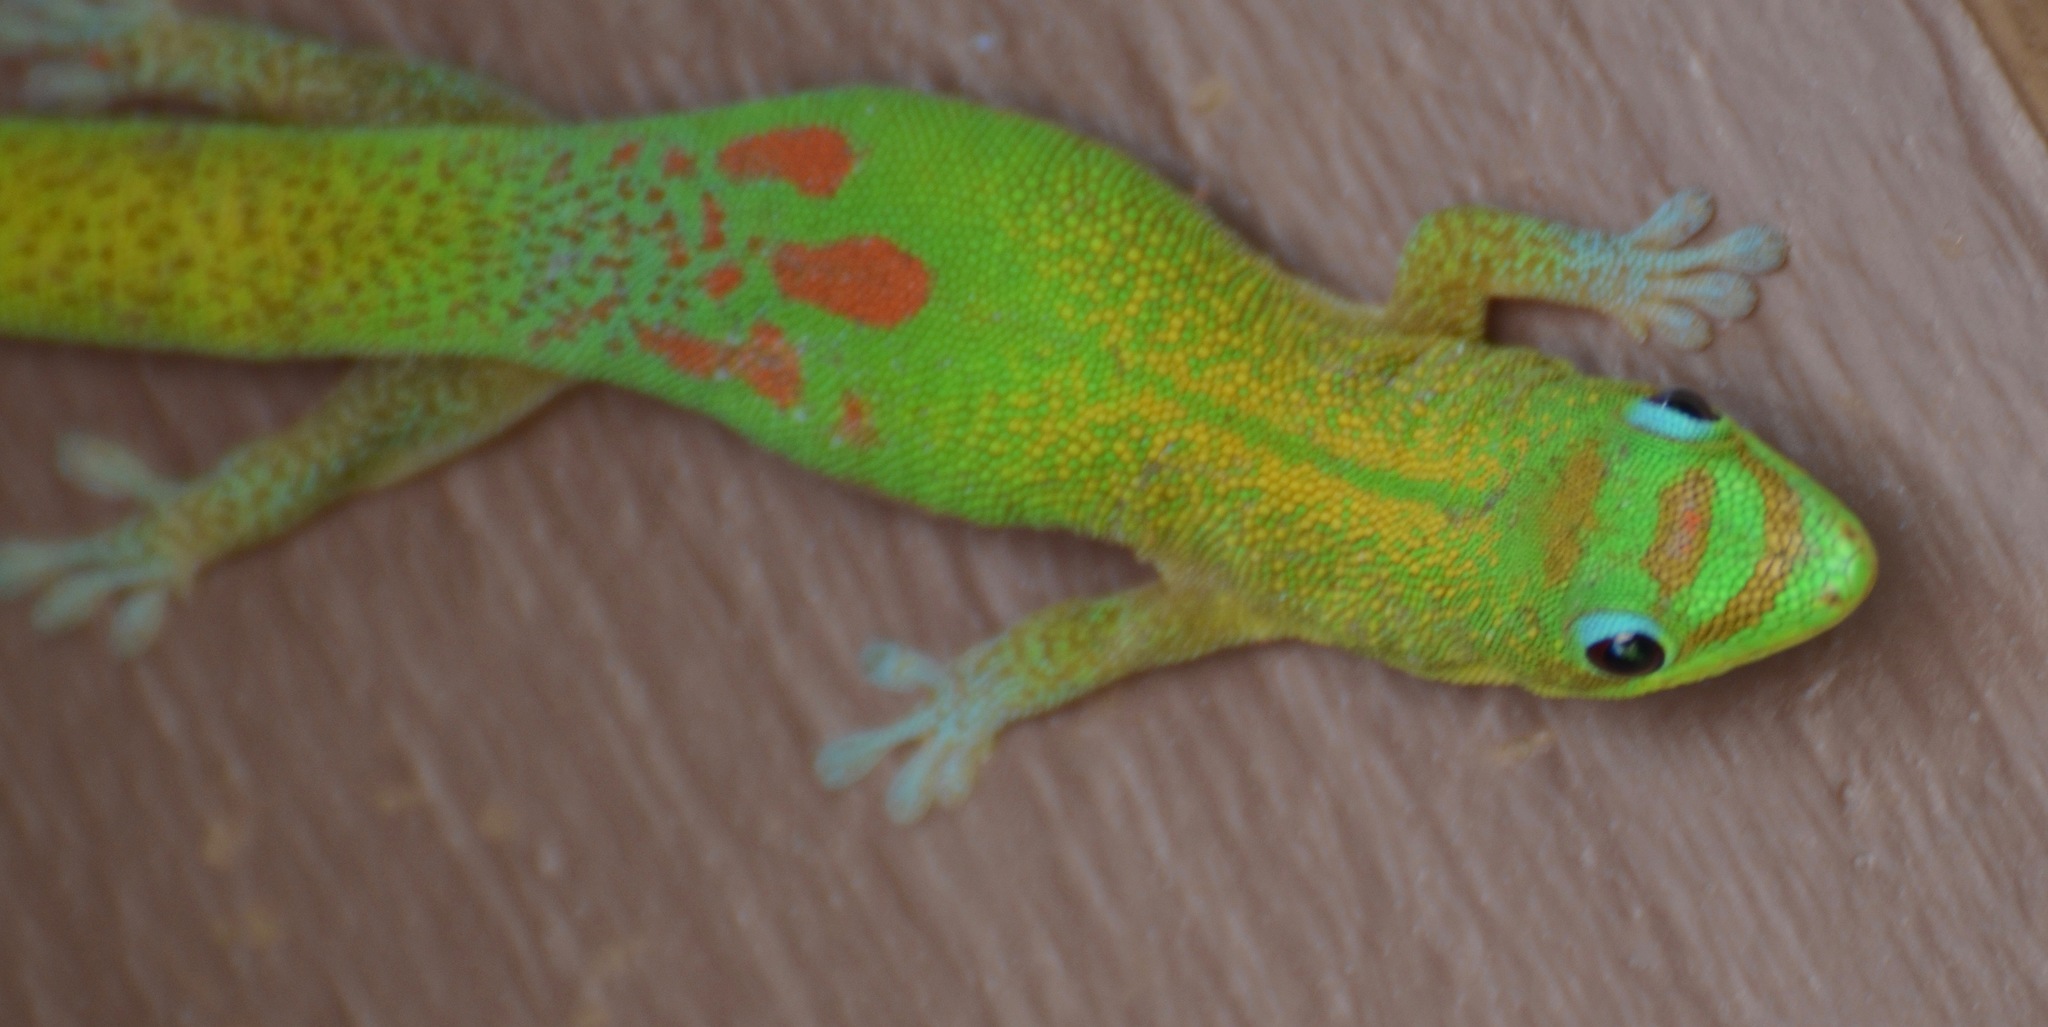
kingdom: Animalia
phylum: Chordata
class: Squamata
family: Gekkonidae
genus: Phelsuma
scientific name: Phelsuma laticauda
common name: Gold dust day gecko
